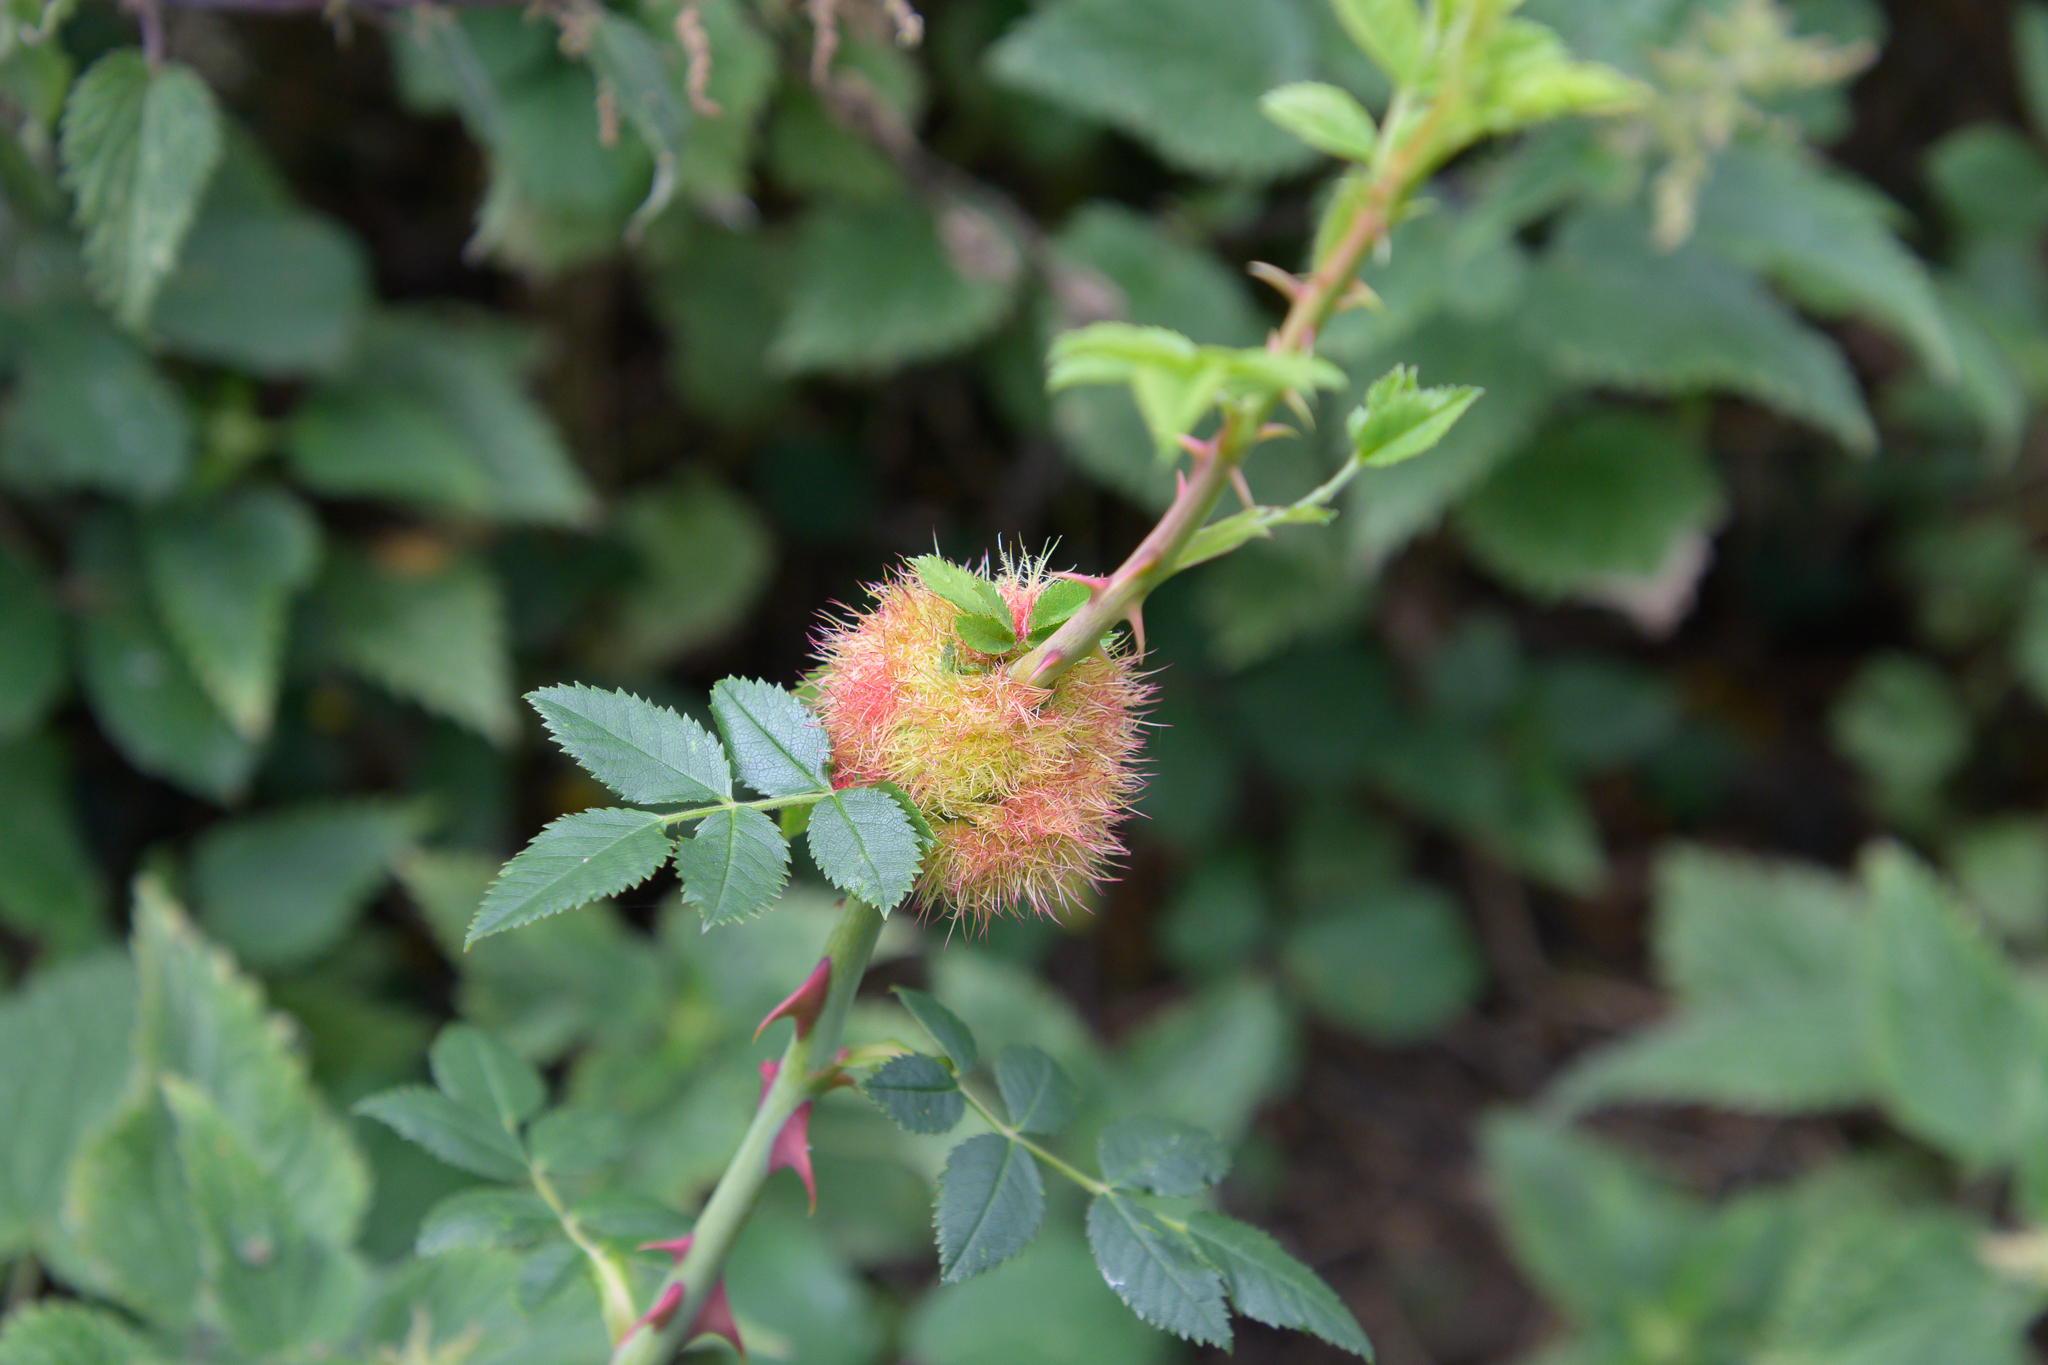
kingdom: Animalia
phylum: Arthropoda
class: Insecta
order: Hymenoptera
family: Cynipidae
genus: Diplolepis
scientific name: Diplolepis rosae
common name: Bedeguar gall
